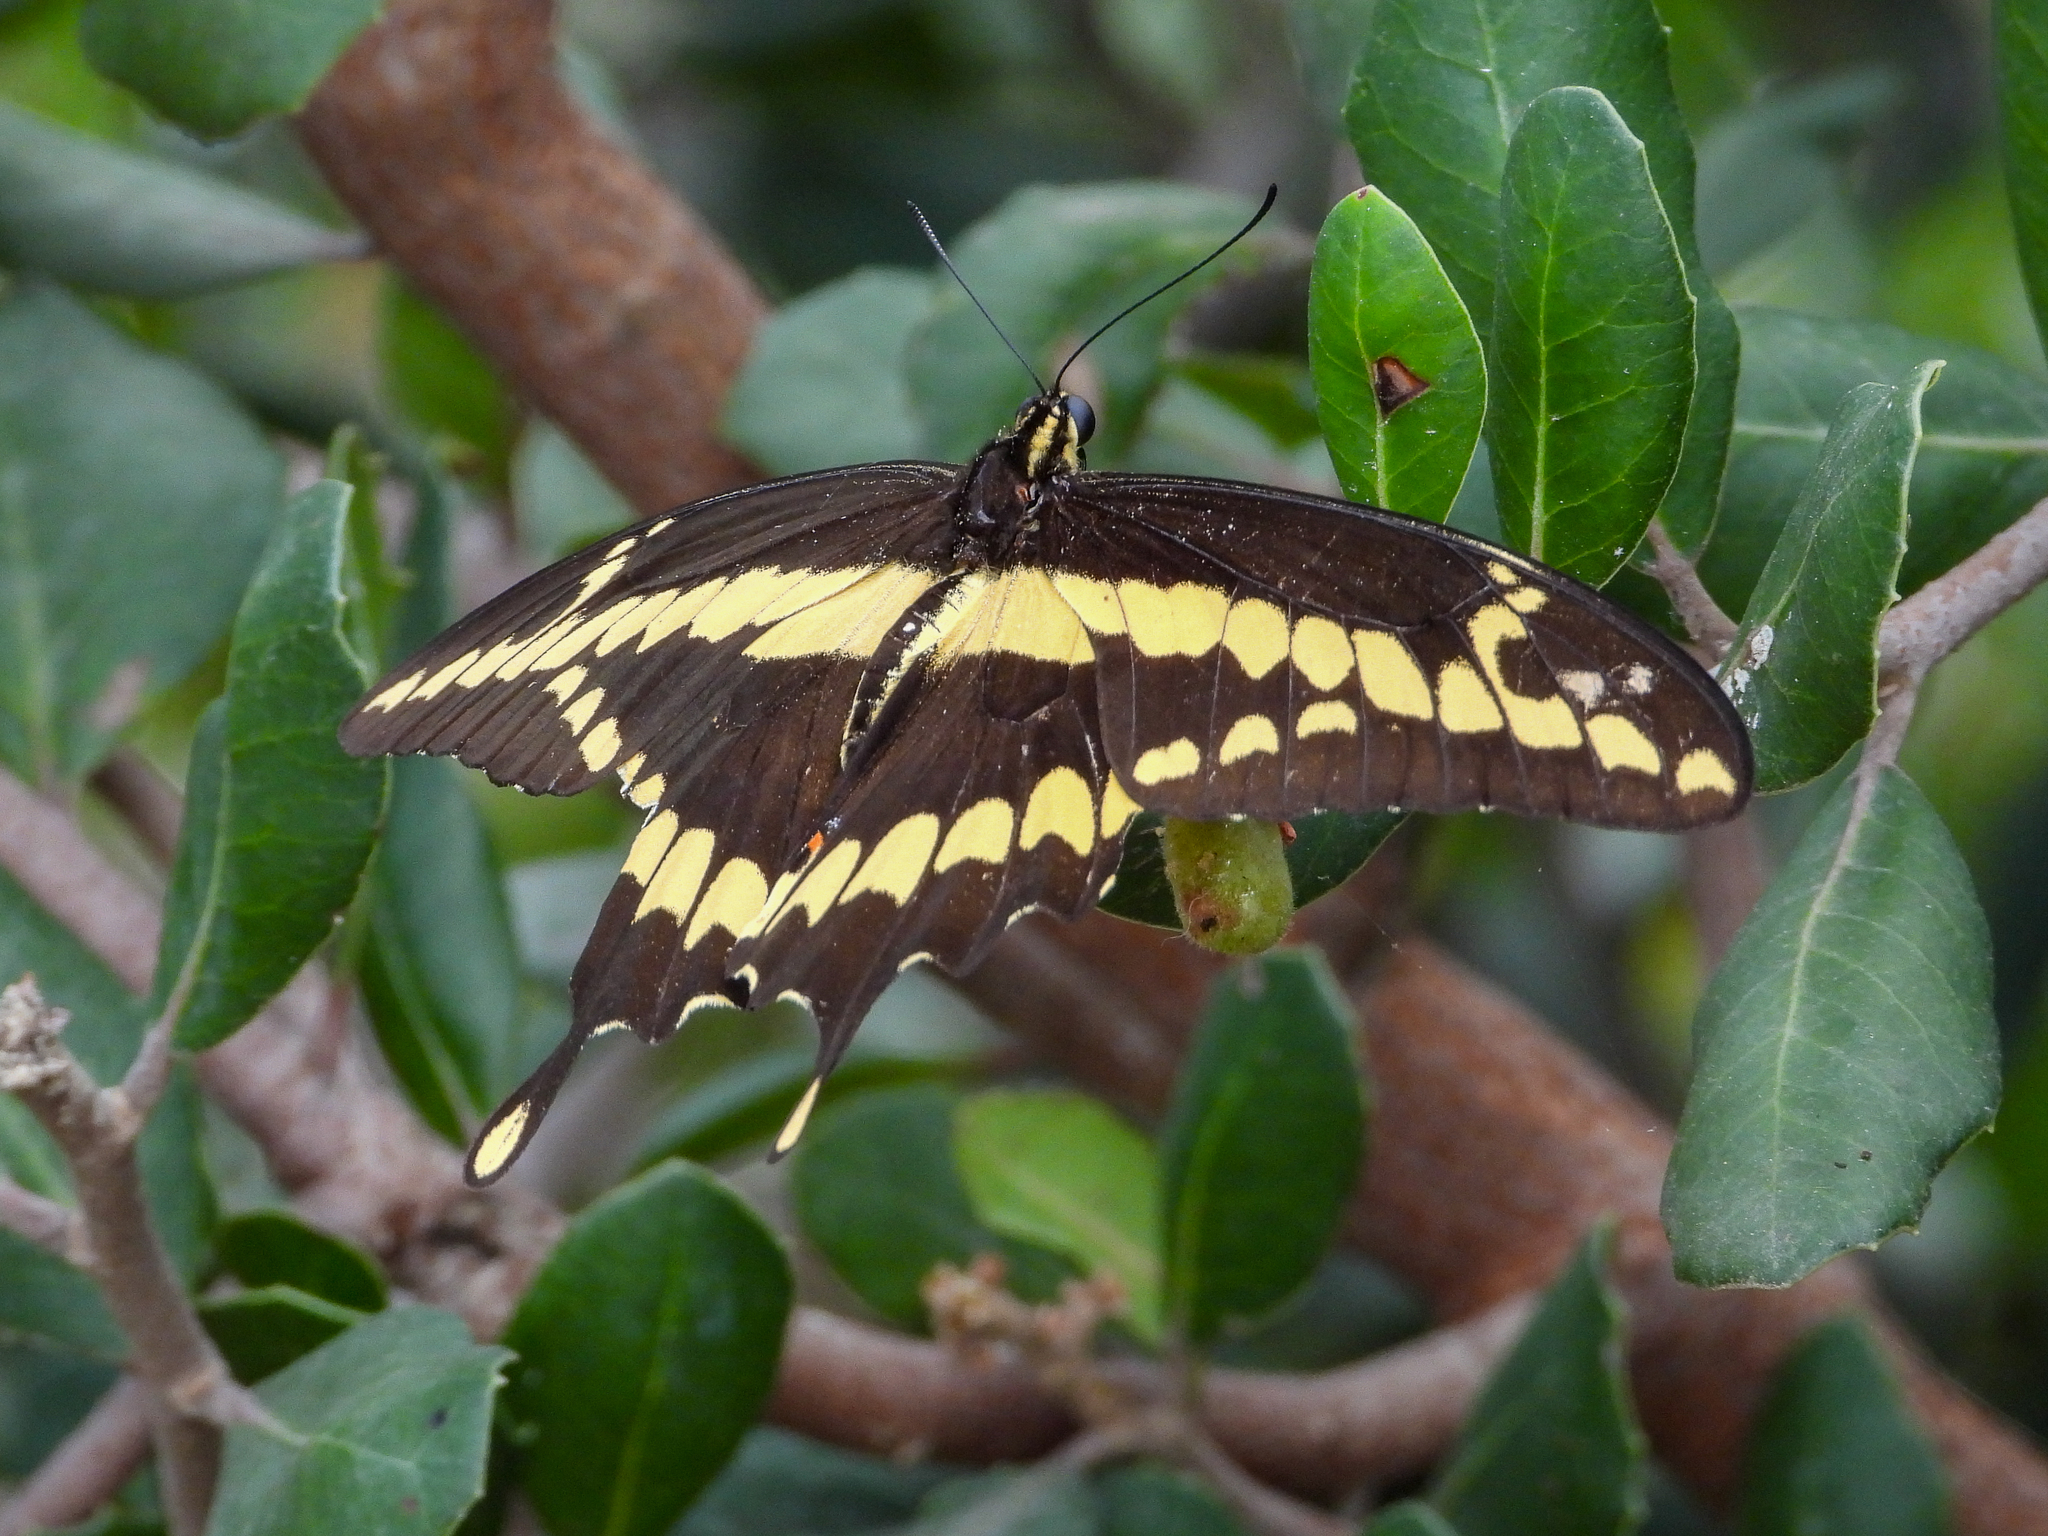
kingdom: Animalia
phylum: Arthropoda
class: Insecta
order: Lepidoptera
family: Papilionidae
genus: Papilio
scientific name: Papilio rumiko
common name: Western giant swallowtail
